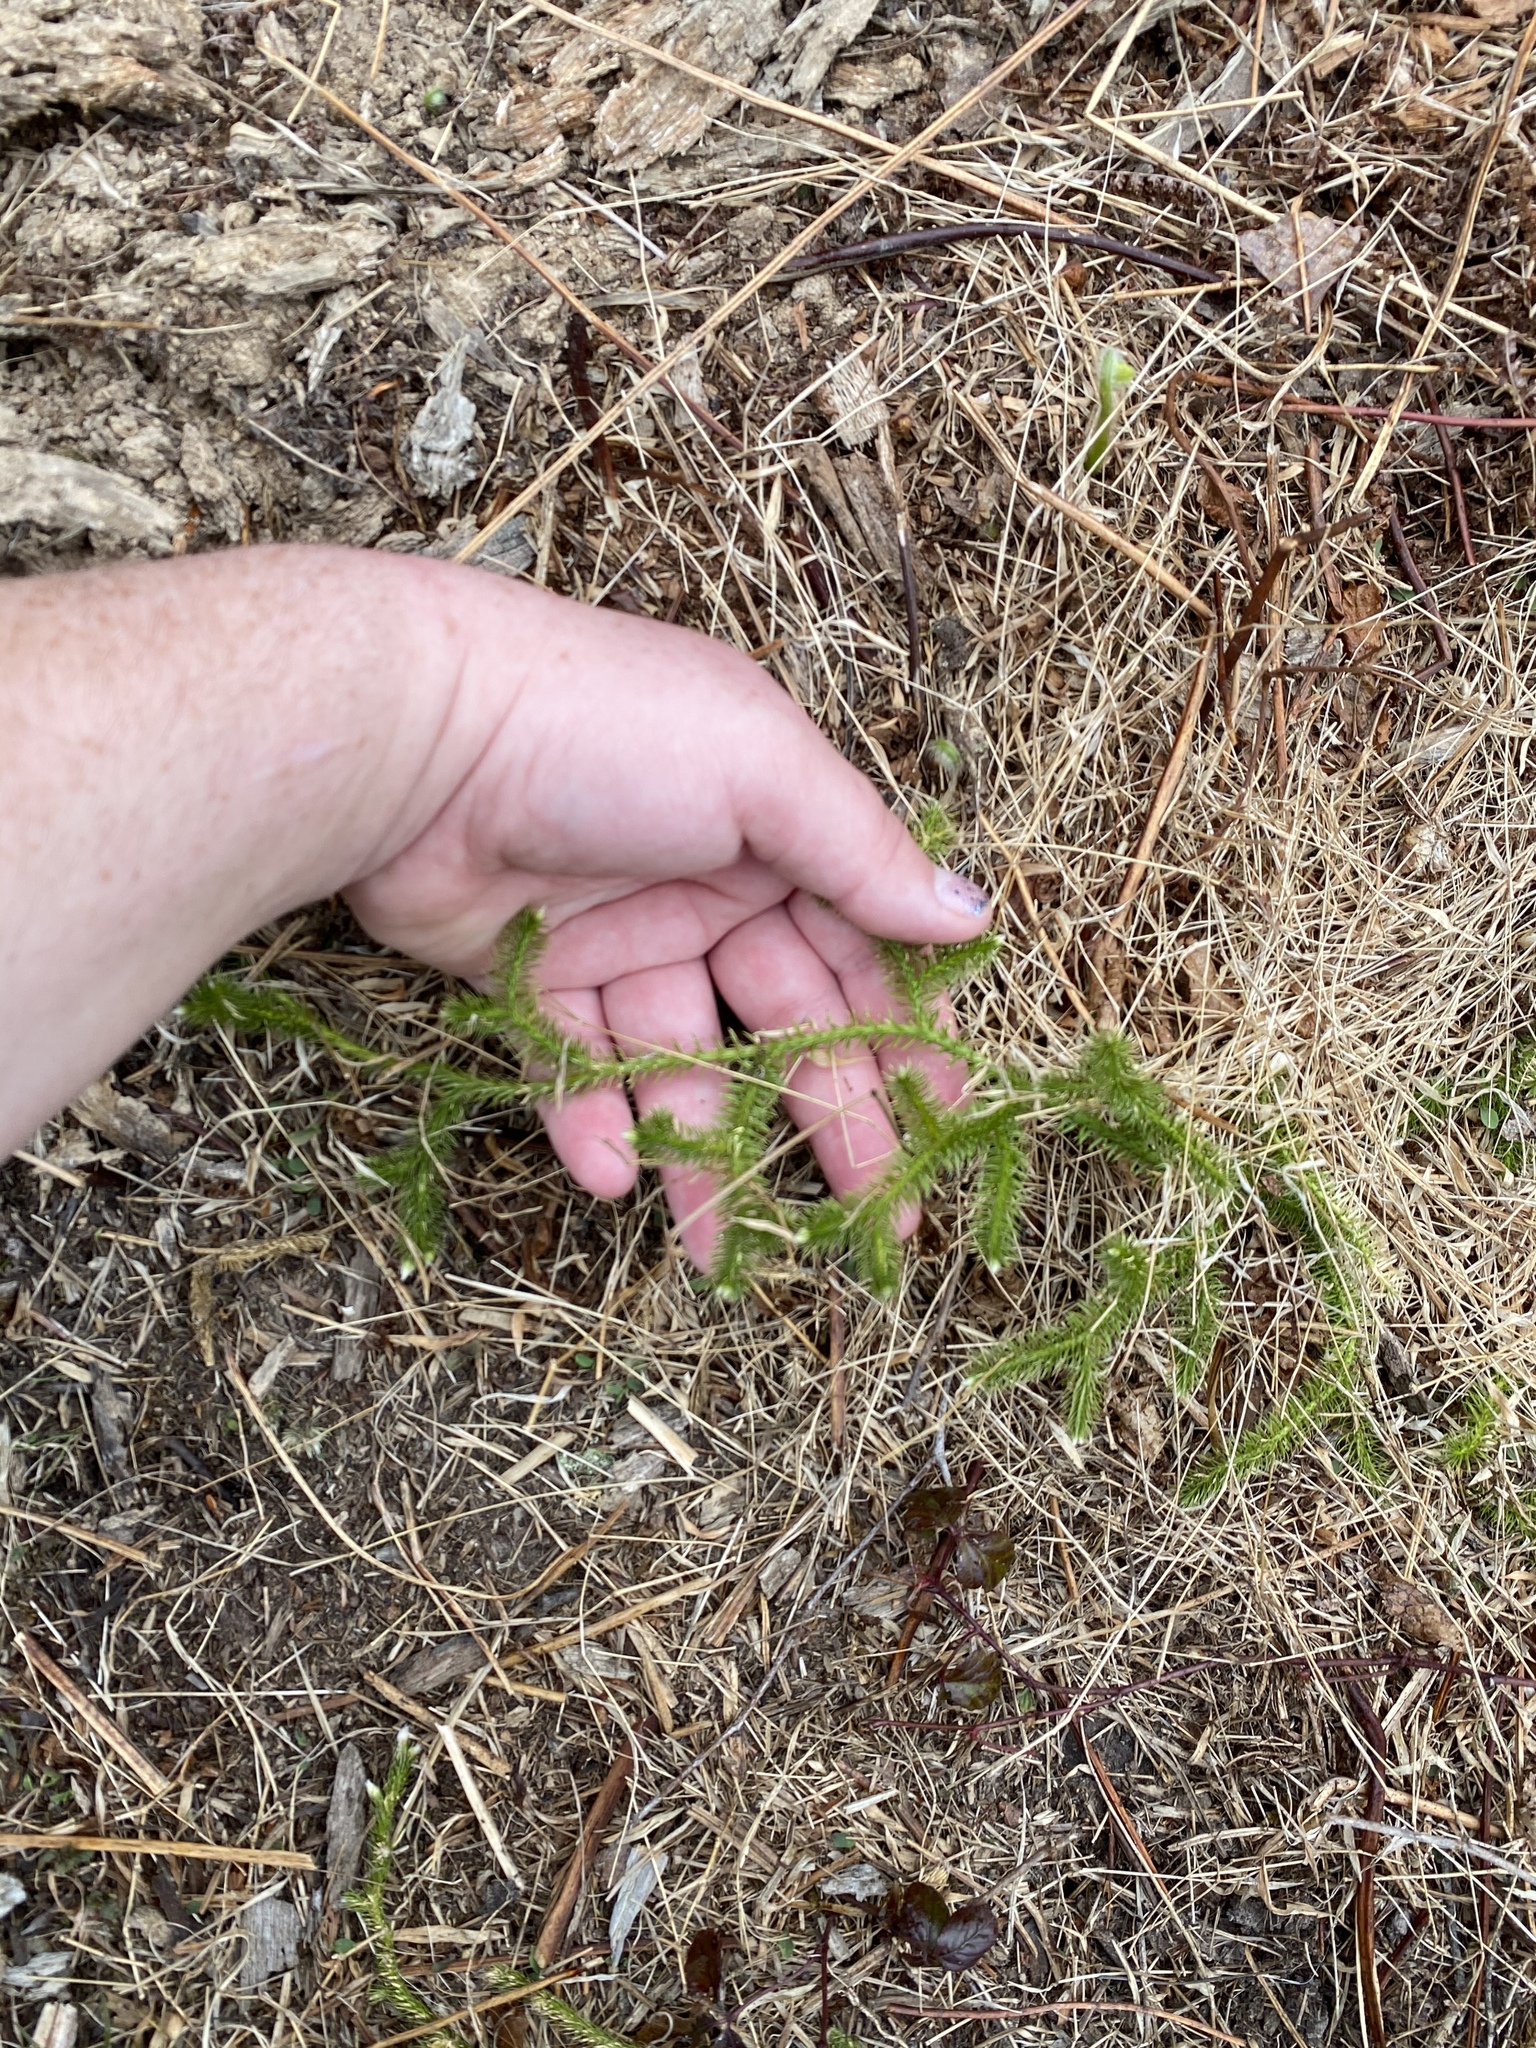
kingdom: Plantae
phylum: Tracheophyta
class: Lycopodiopsida
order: Lycopodiales
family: Lycopodiaceae
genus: Lycopodium
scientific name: Lycopodium clavatum
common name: Stag's-horn clubmoss
